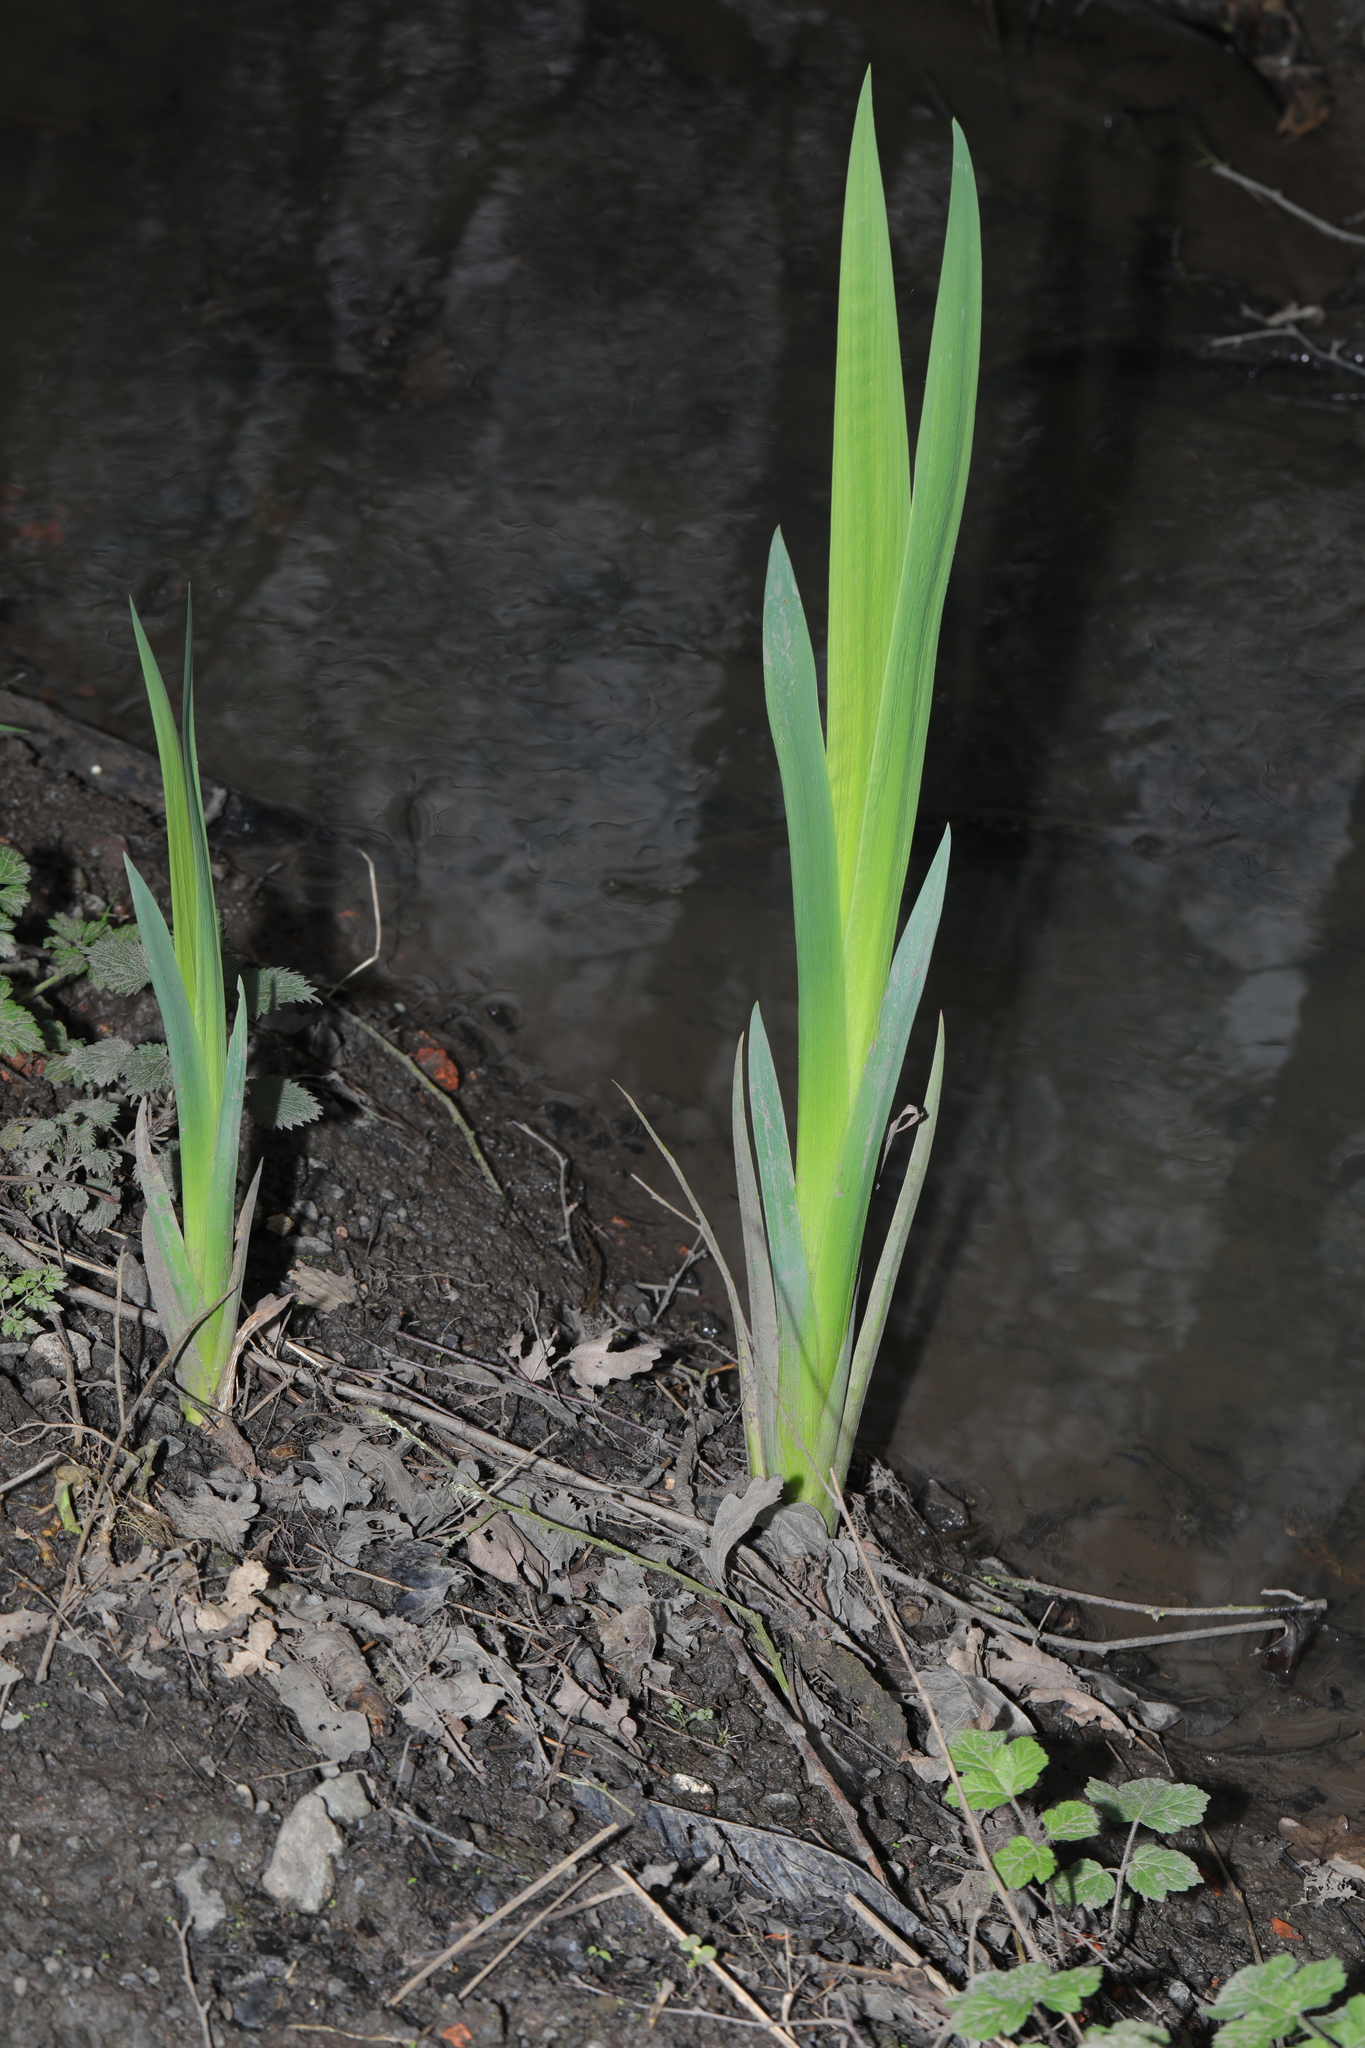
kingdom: Plantae
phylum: Tracheophyta
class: Liliopsida
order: Asparagales
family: Iridaceae
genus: Iris
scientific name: Iris pseudacorus
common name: Yellow flag
